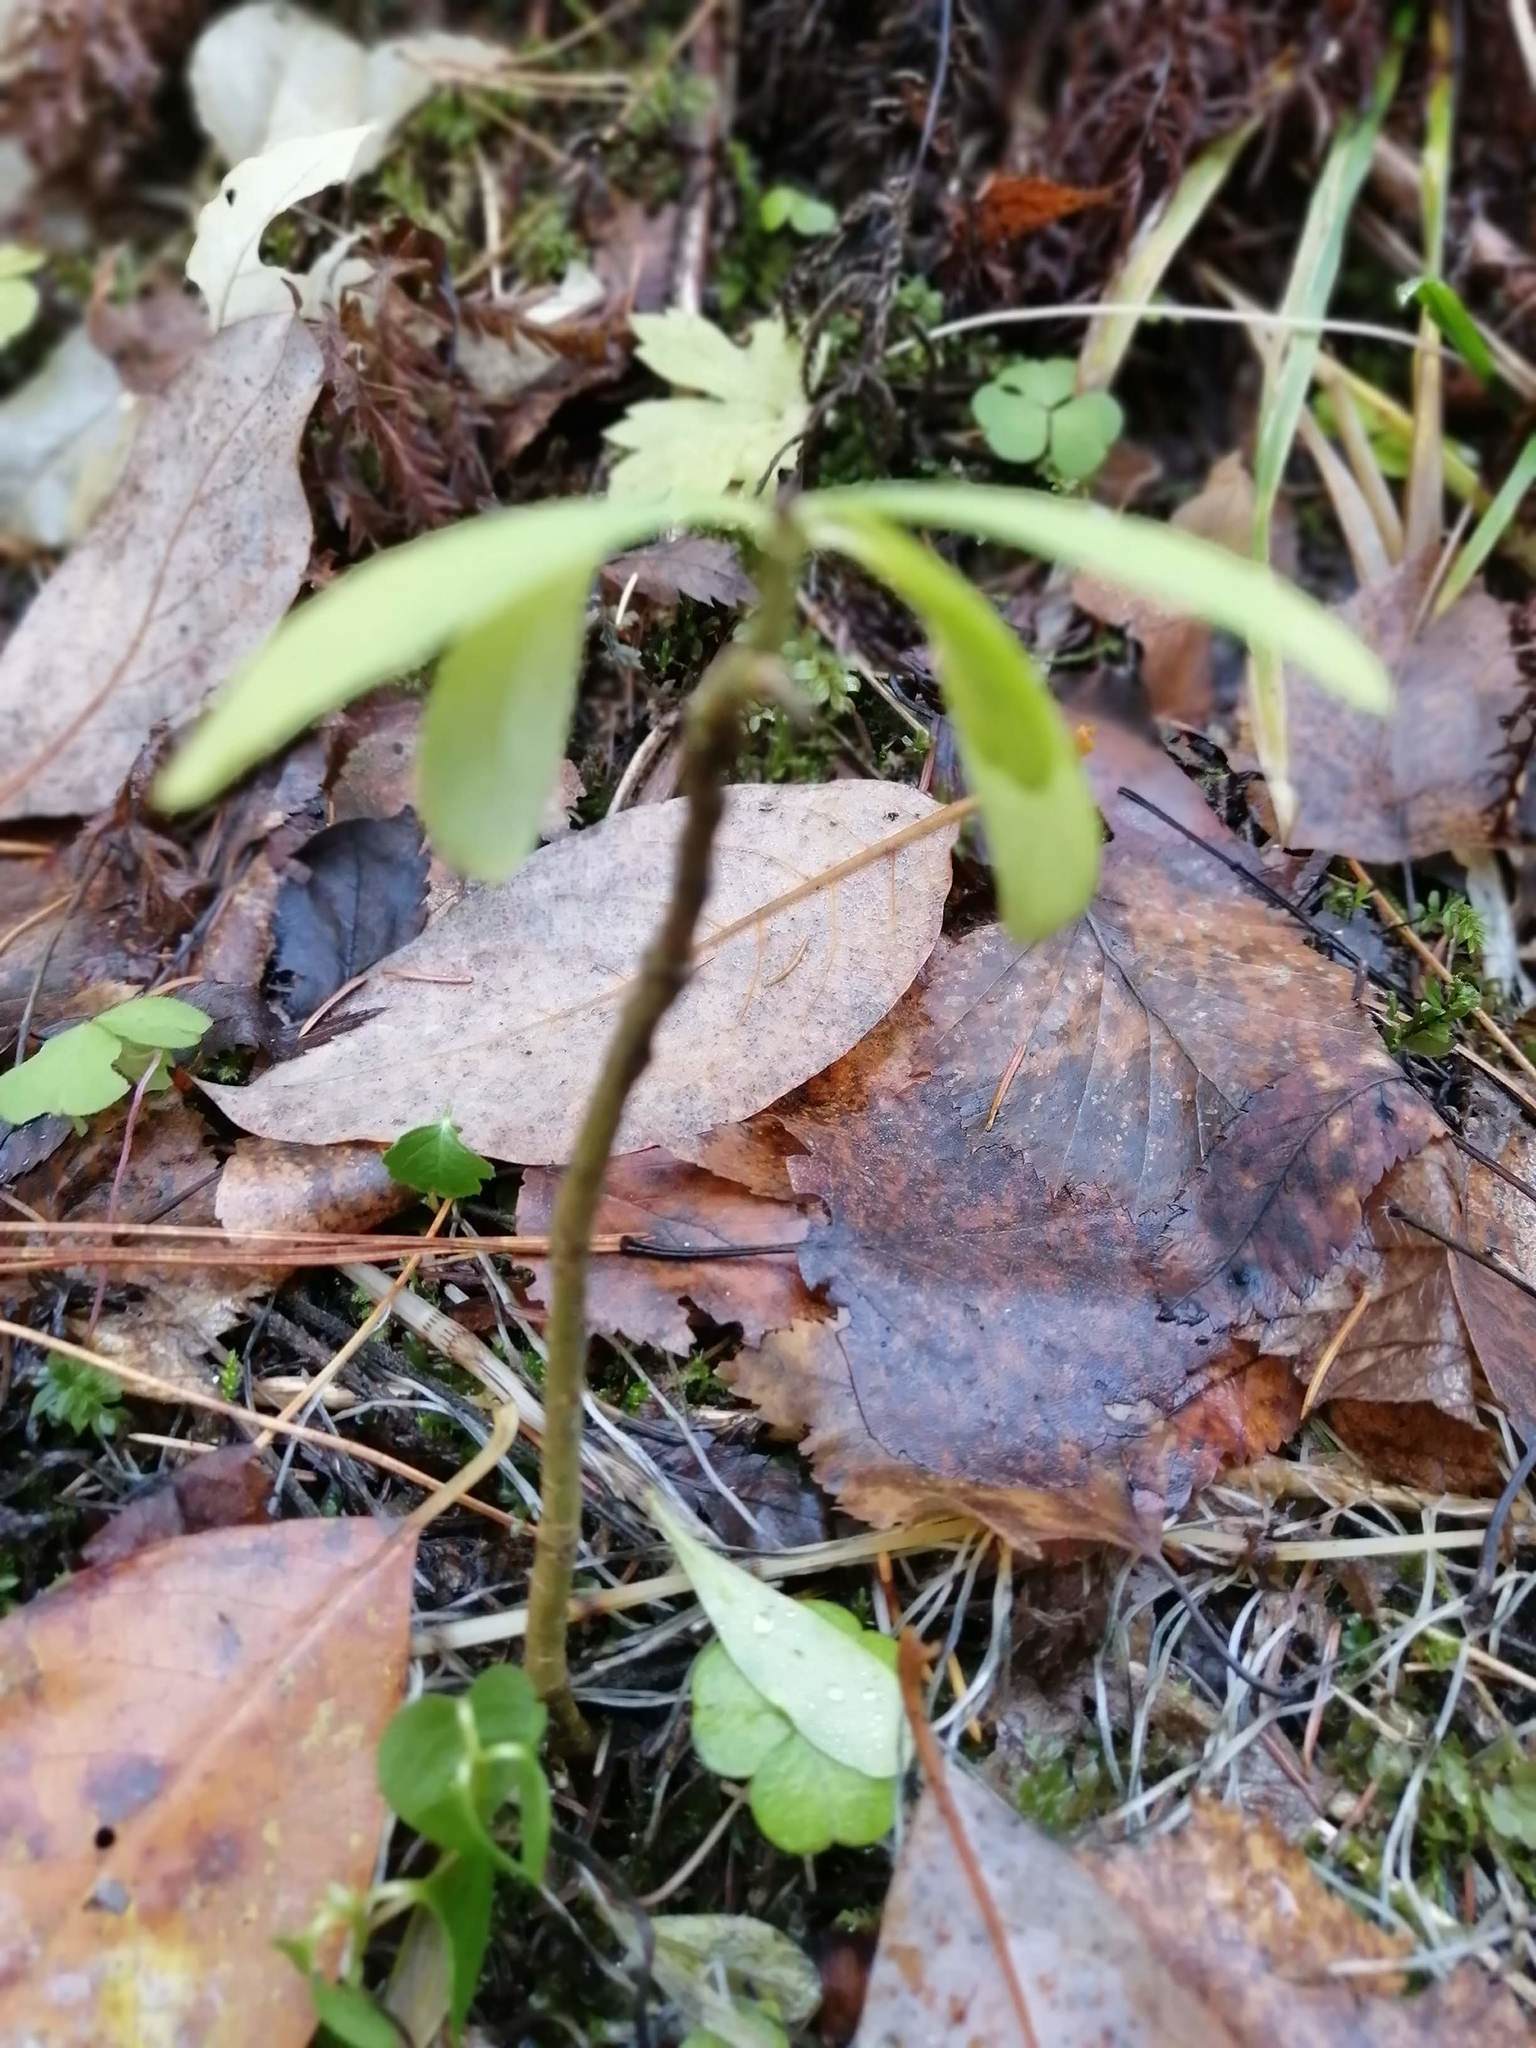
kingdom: Plantae
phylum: Tracheophyta
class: Magnoliopsida
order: Malvales
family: Thymelaeaceae
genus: Daphne
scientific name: Daphne mezereum
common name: Mezereon
